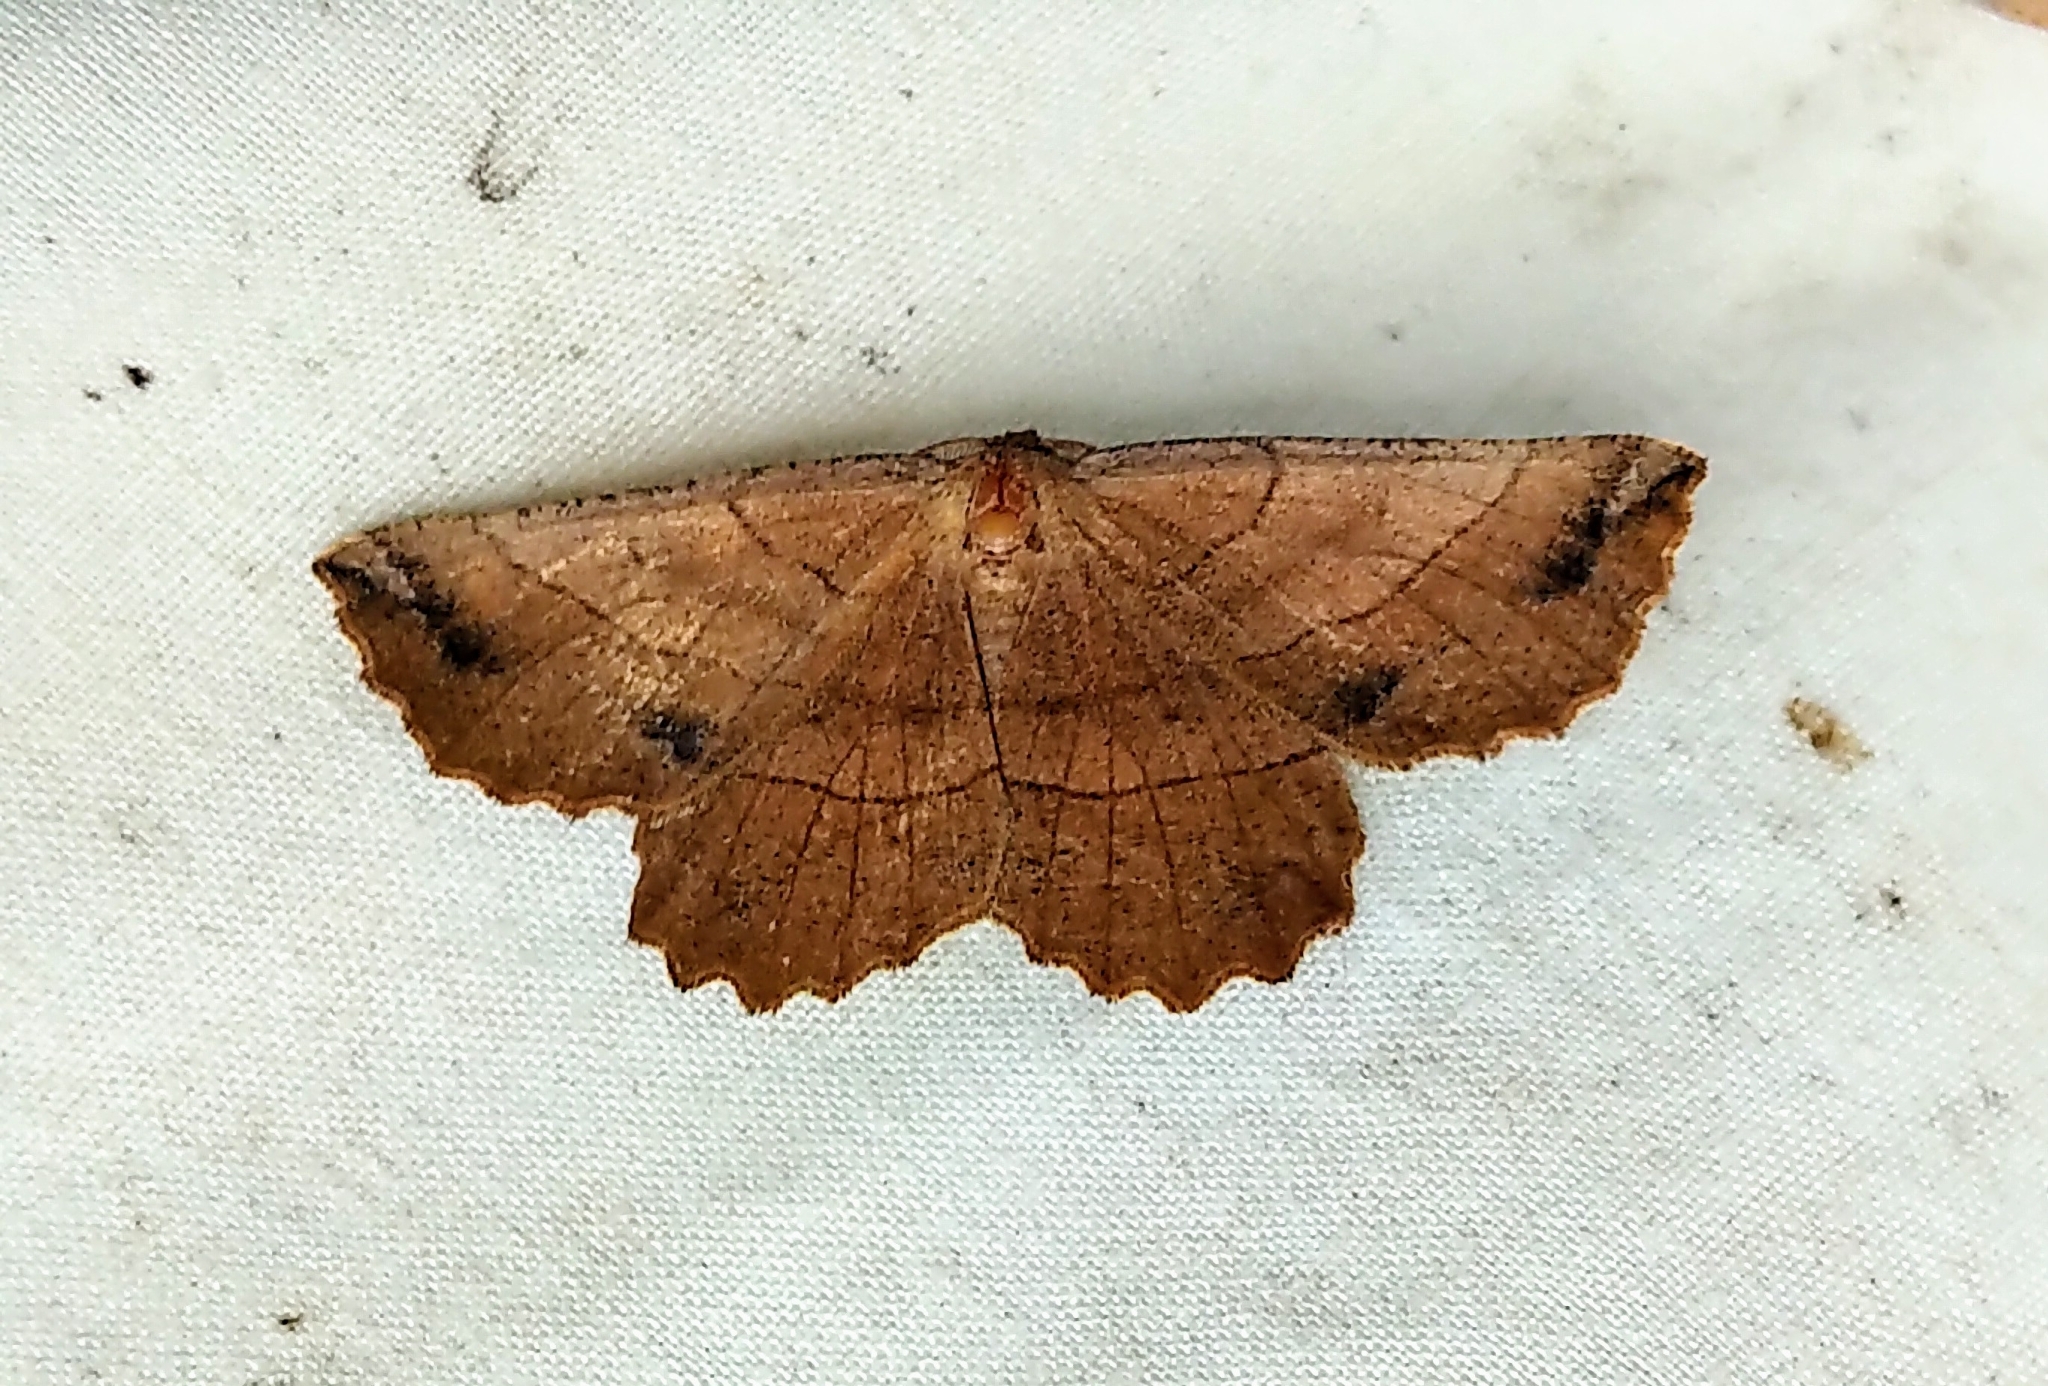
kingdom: Animalia
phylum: Arthropoda
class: Insecta
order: Lepidoptera
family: Geometridae
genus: Euchlaena
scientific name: Euchlaena johnsonaria
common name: Johnson's euchlaena
